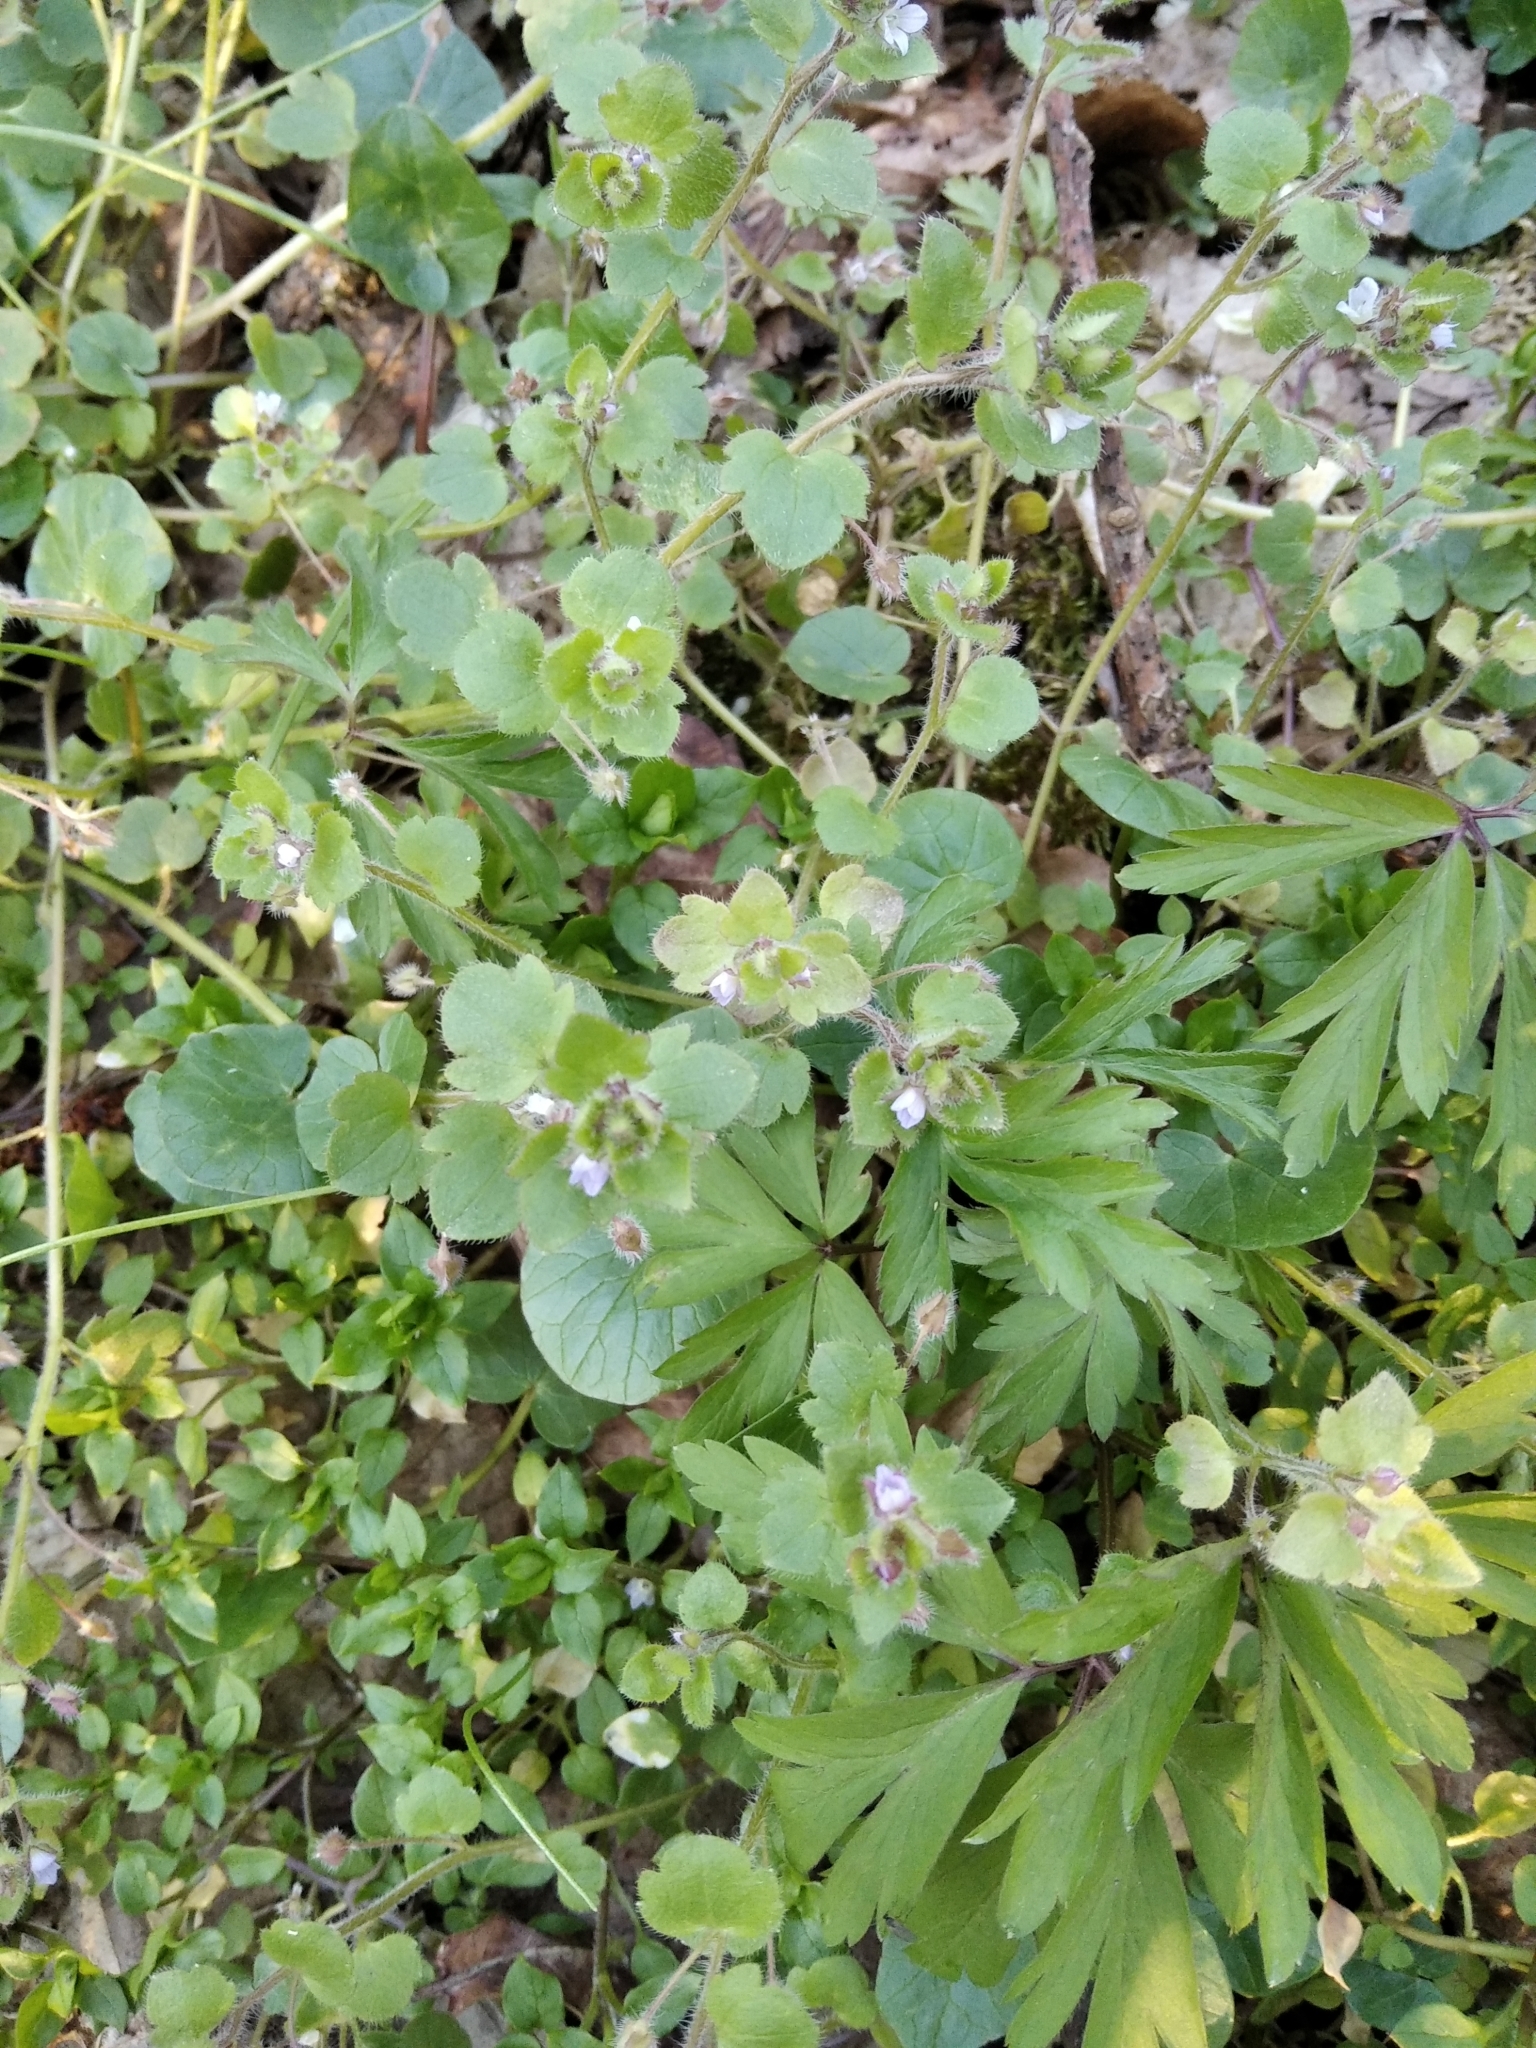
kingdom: Plantae
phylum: Tracheophyta
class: Magnoliopsida
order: Lamiales
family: Plantaginaceae
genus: Veronica
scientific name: Veronica sublobata
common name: False ivy-leaved speedwell
